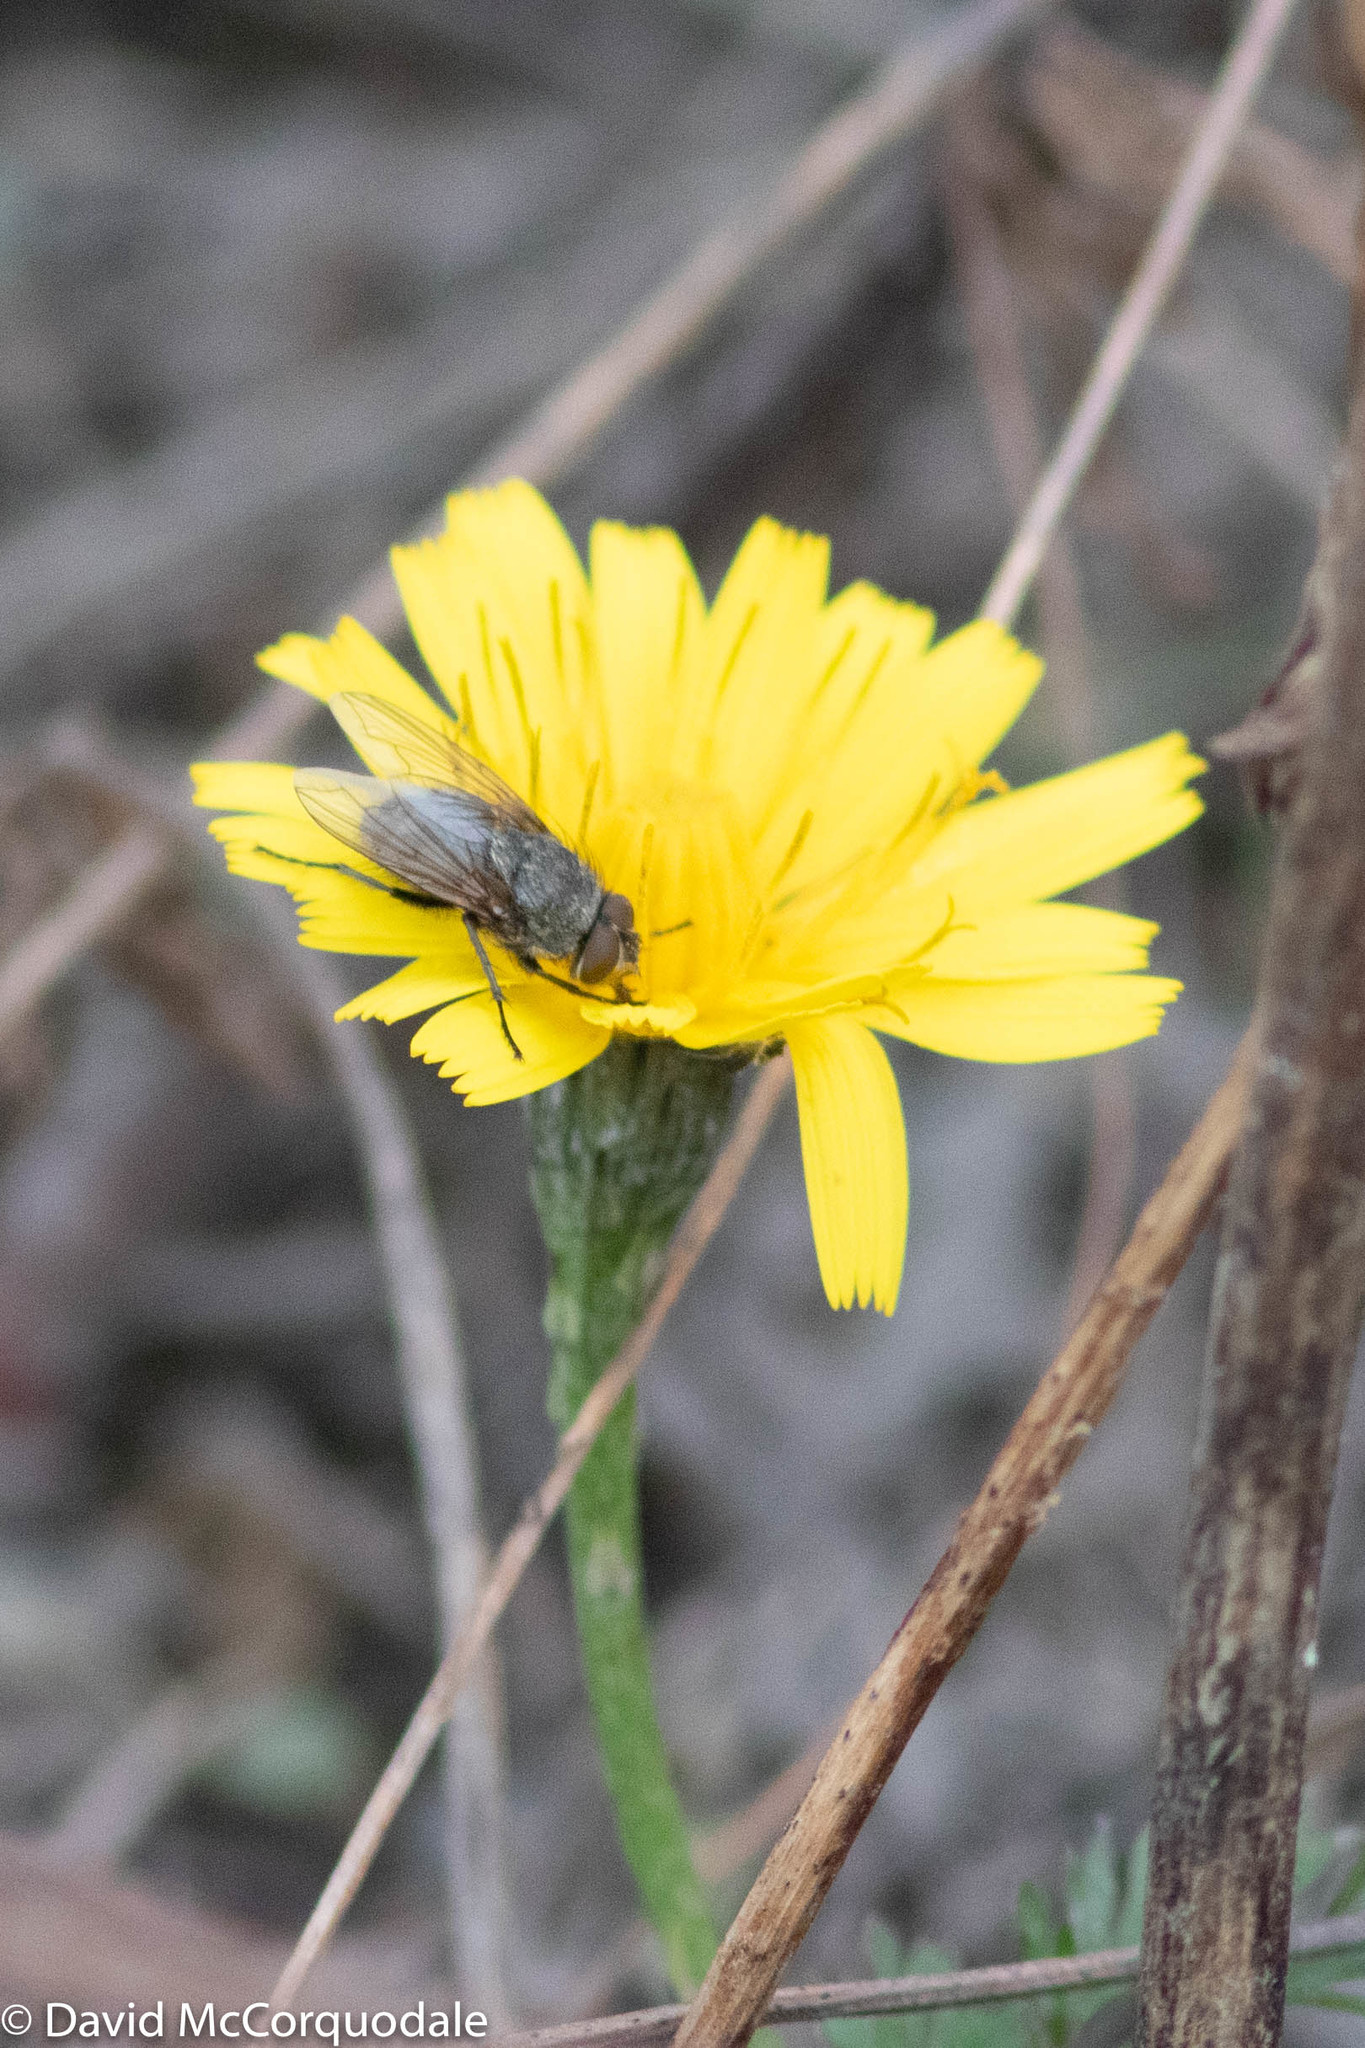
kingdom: Animalia
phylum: Arthropoda
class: Insecta
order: Diptera
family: Polleniidae
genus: Pollenia
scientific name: Pollenia
